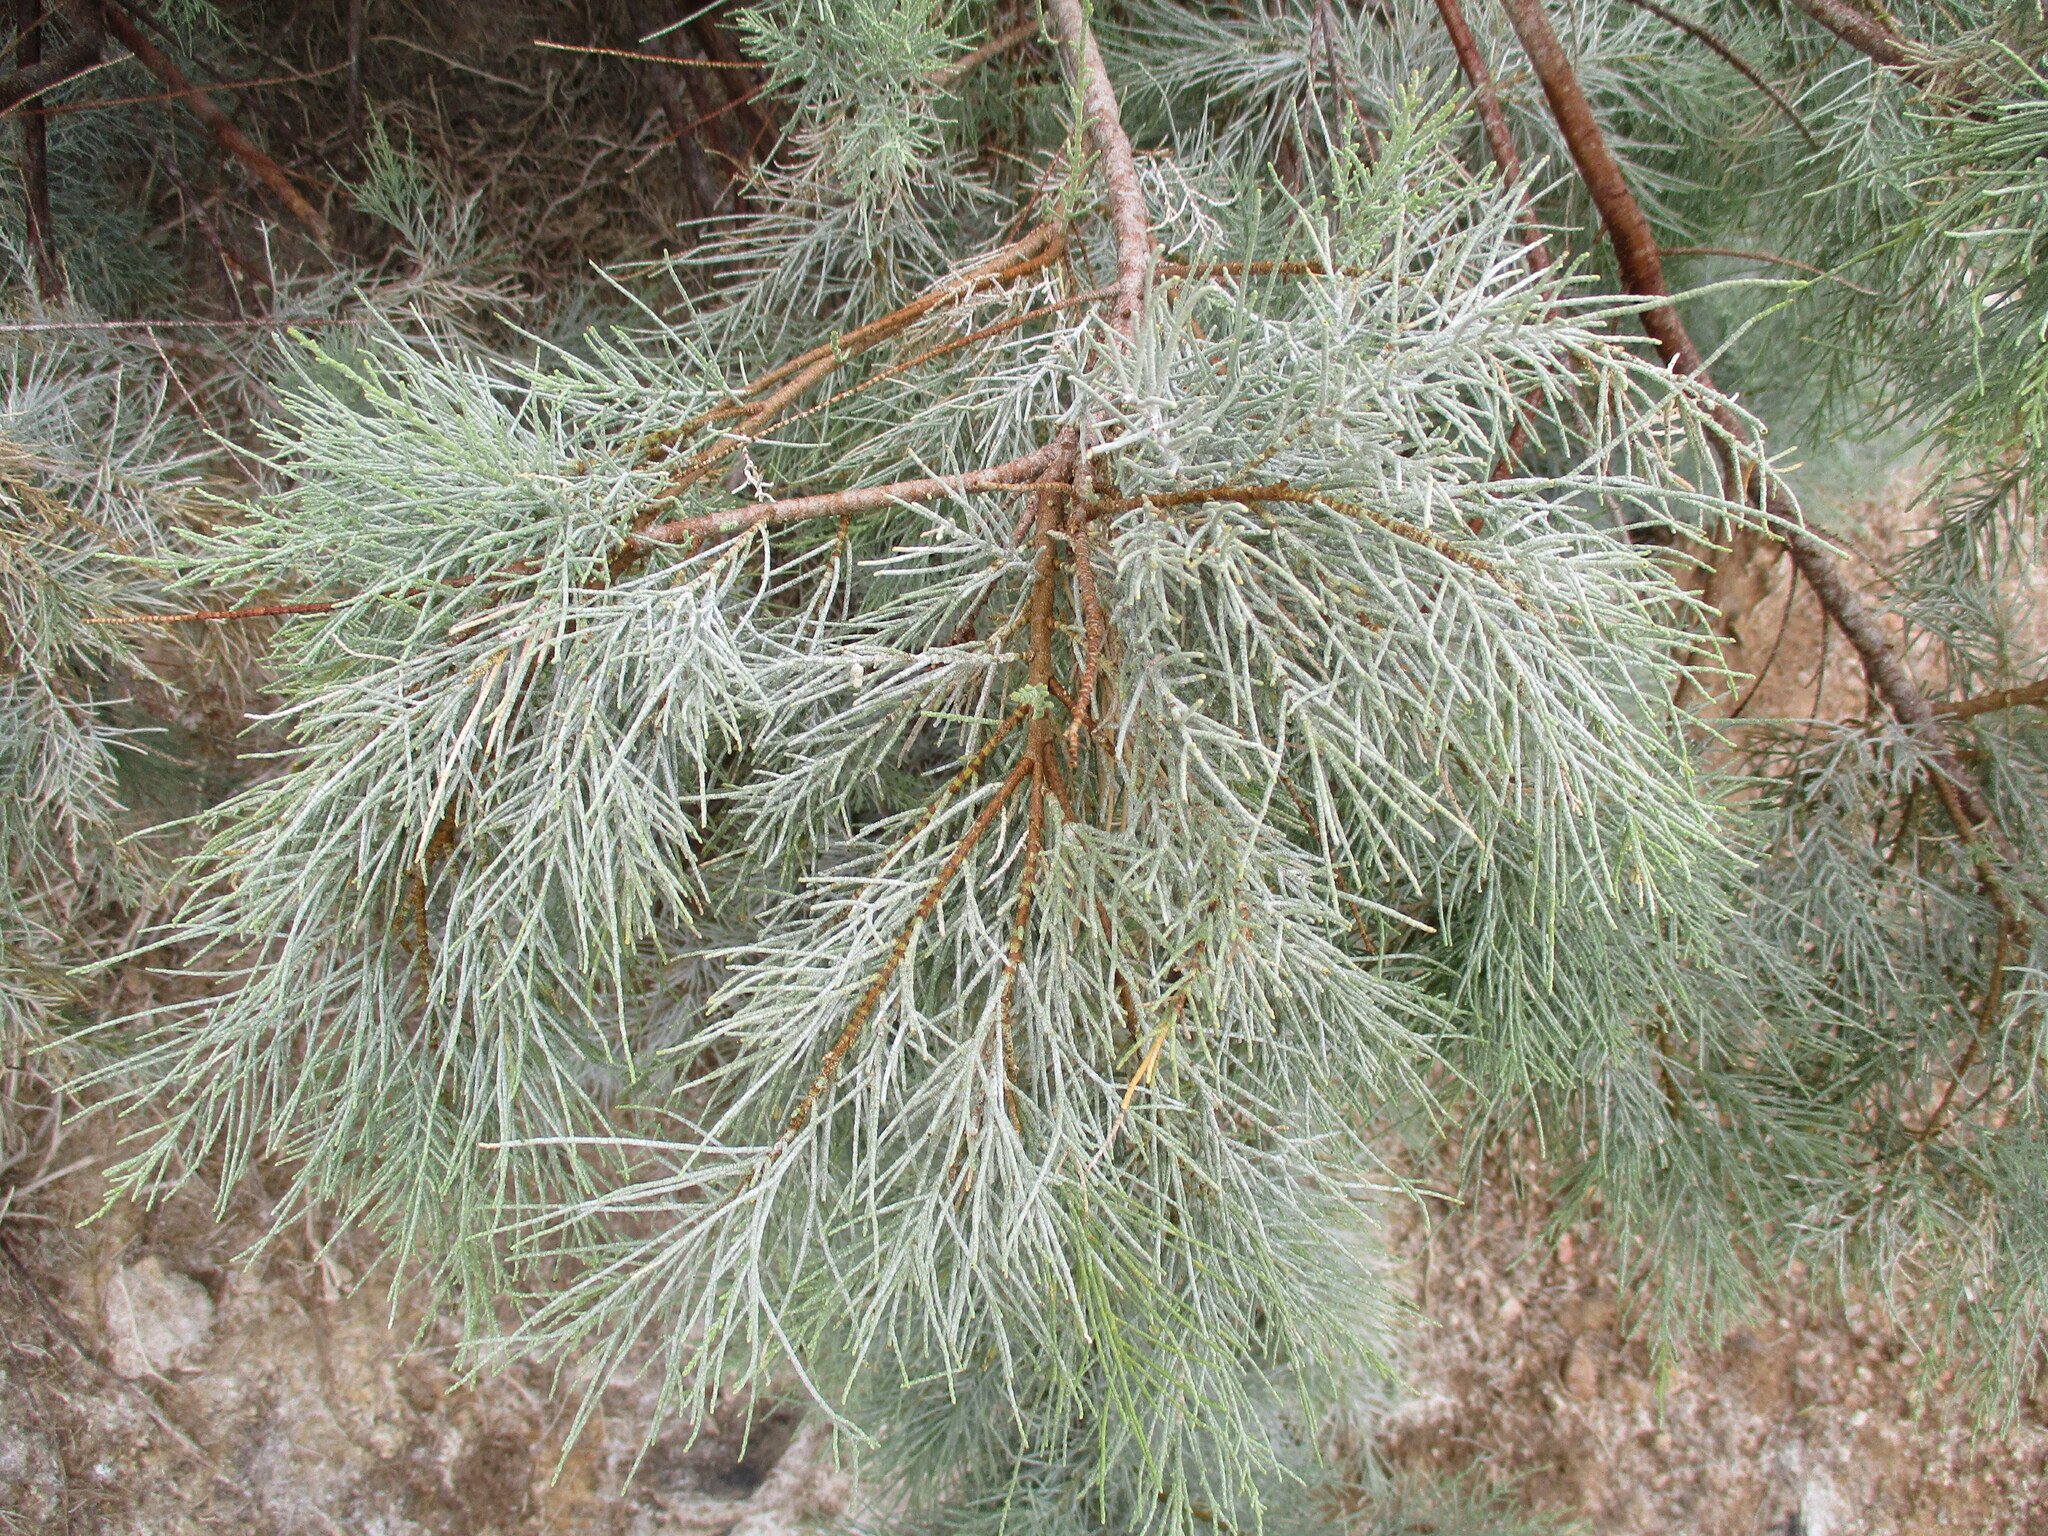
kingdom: Plantae
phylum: Tracheophyta
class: Magnoliopsida
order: Caryophyllales
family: Tamaricaceae
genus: Tamarix
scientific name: Tamarix usneoides
